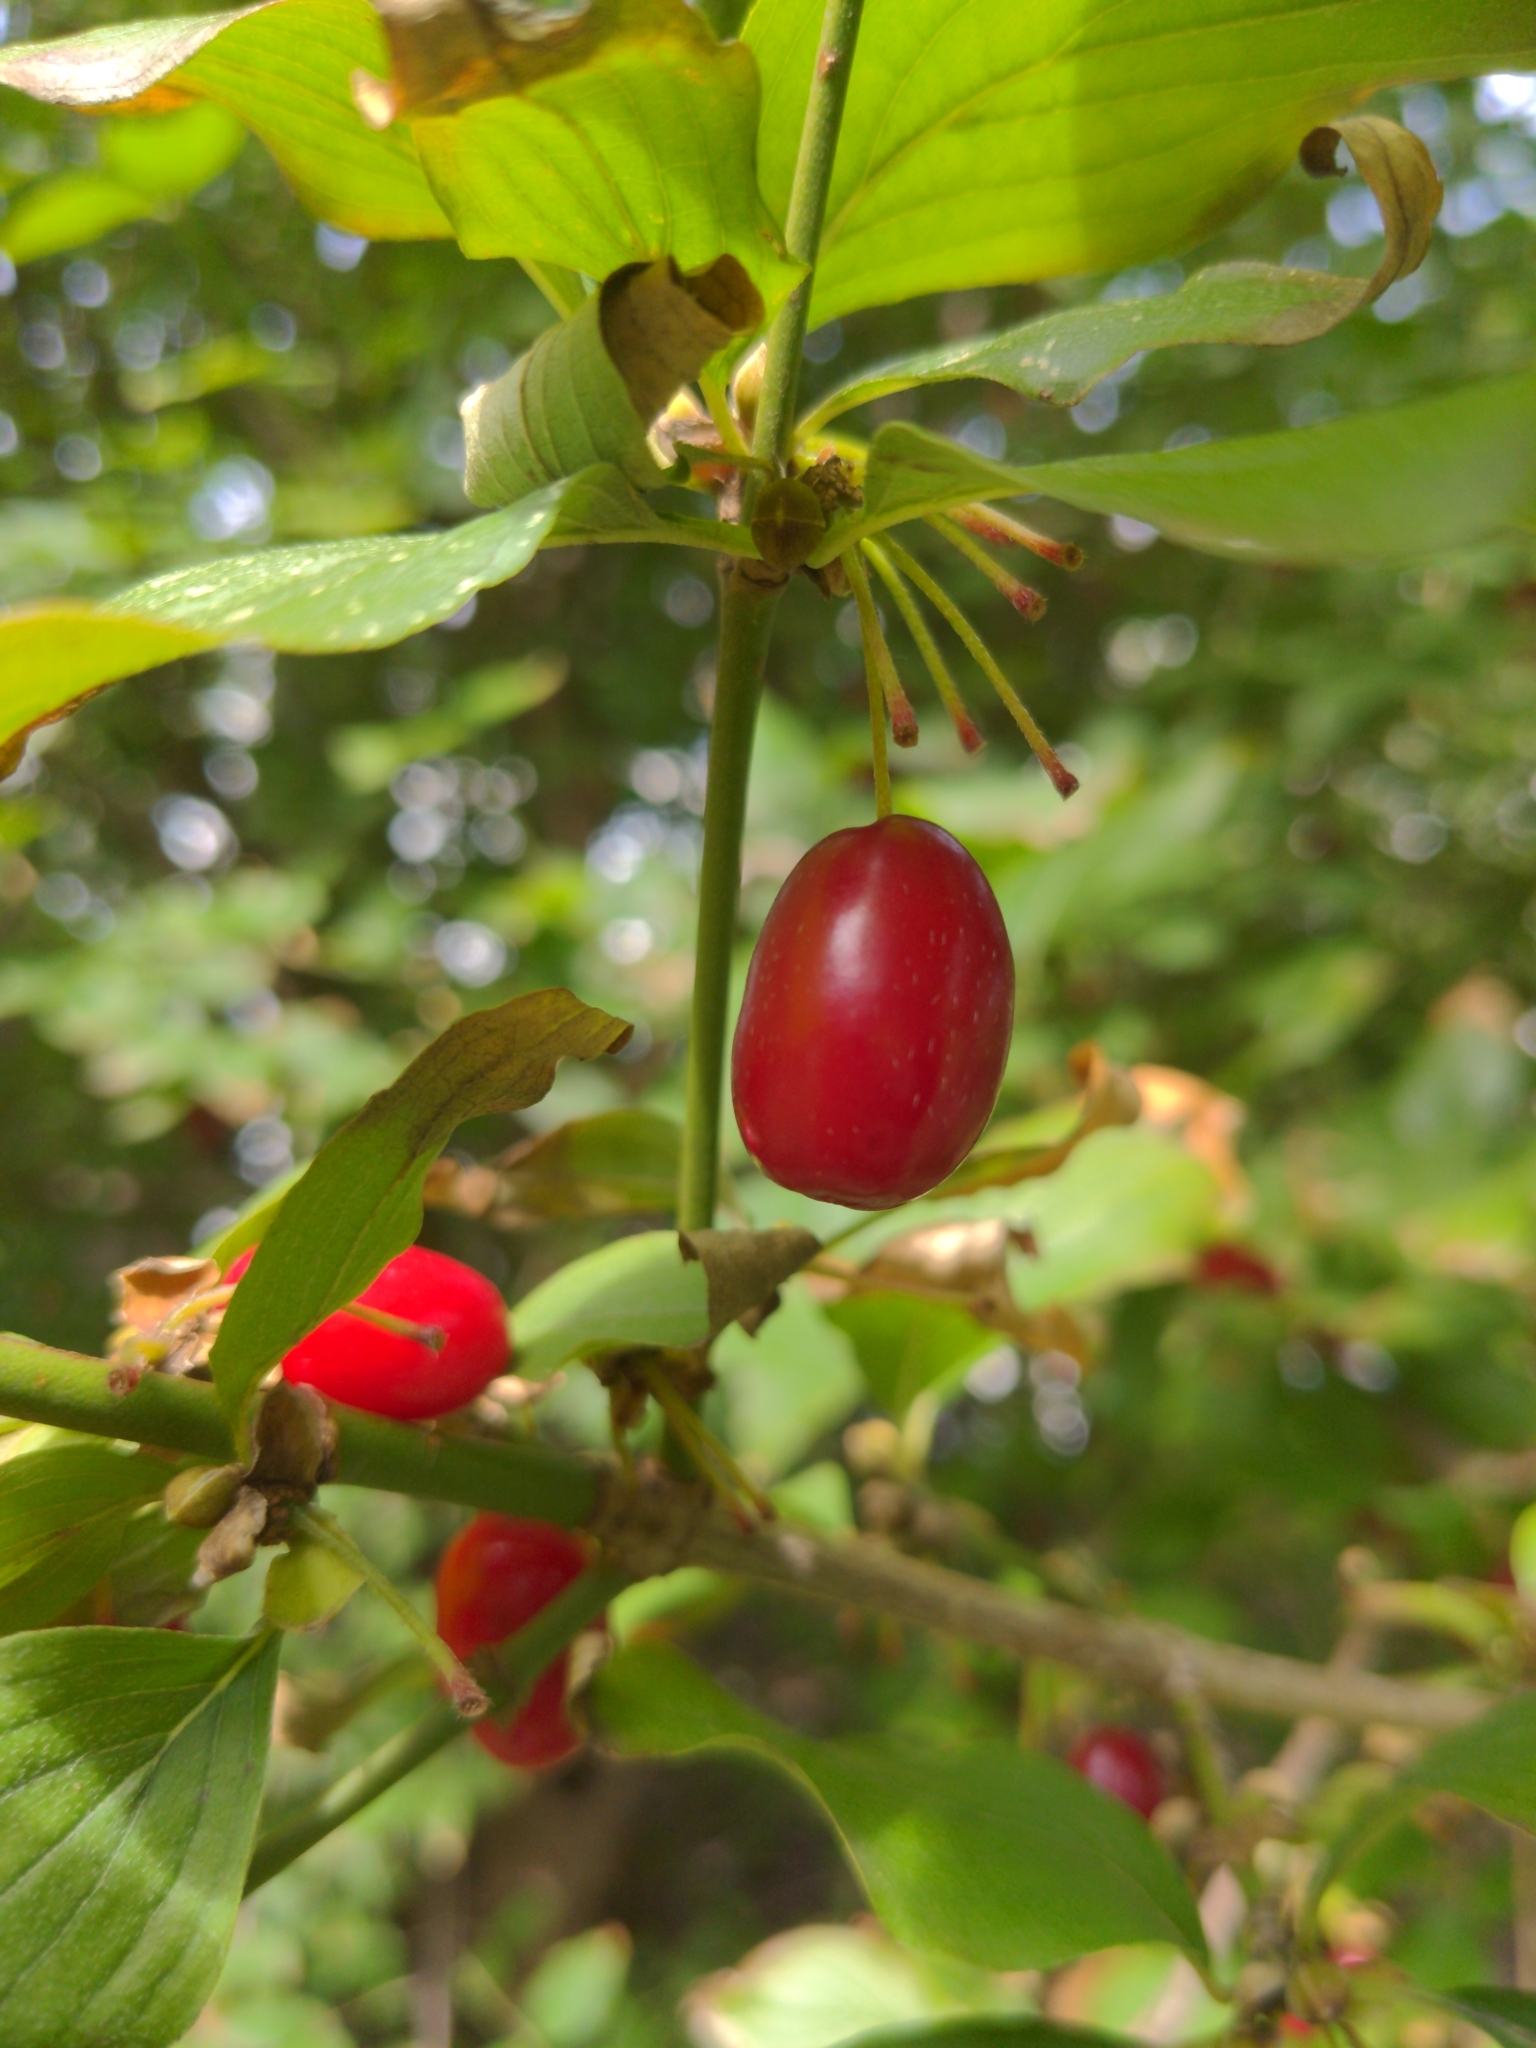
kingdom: Plantae
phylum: Tracheophyta
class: Magnoliopsida
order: Cornales
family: Cornaceae
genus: Cornus
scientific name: Cornus mas
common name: Cornelian-cherry
